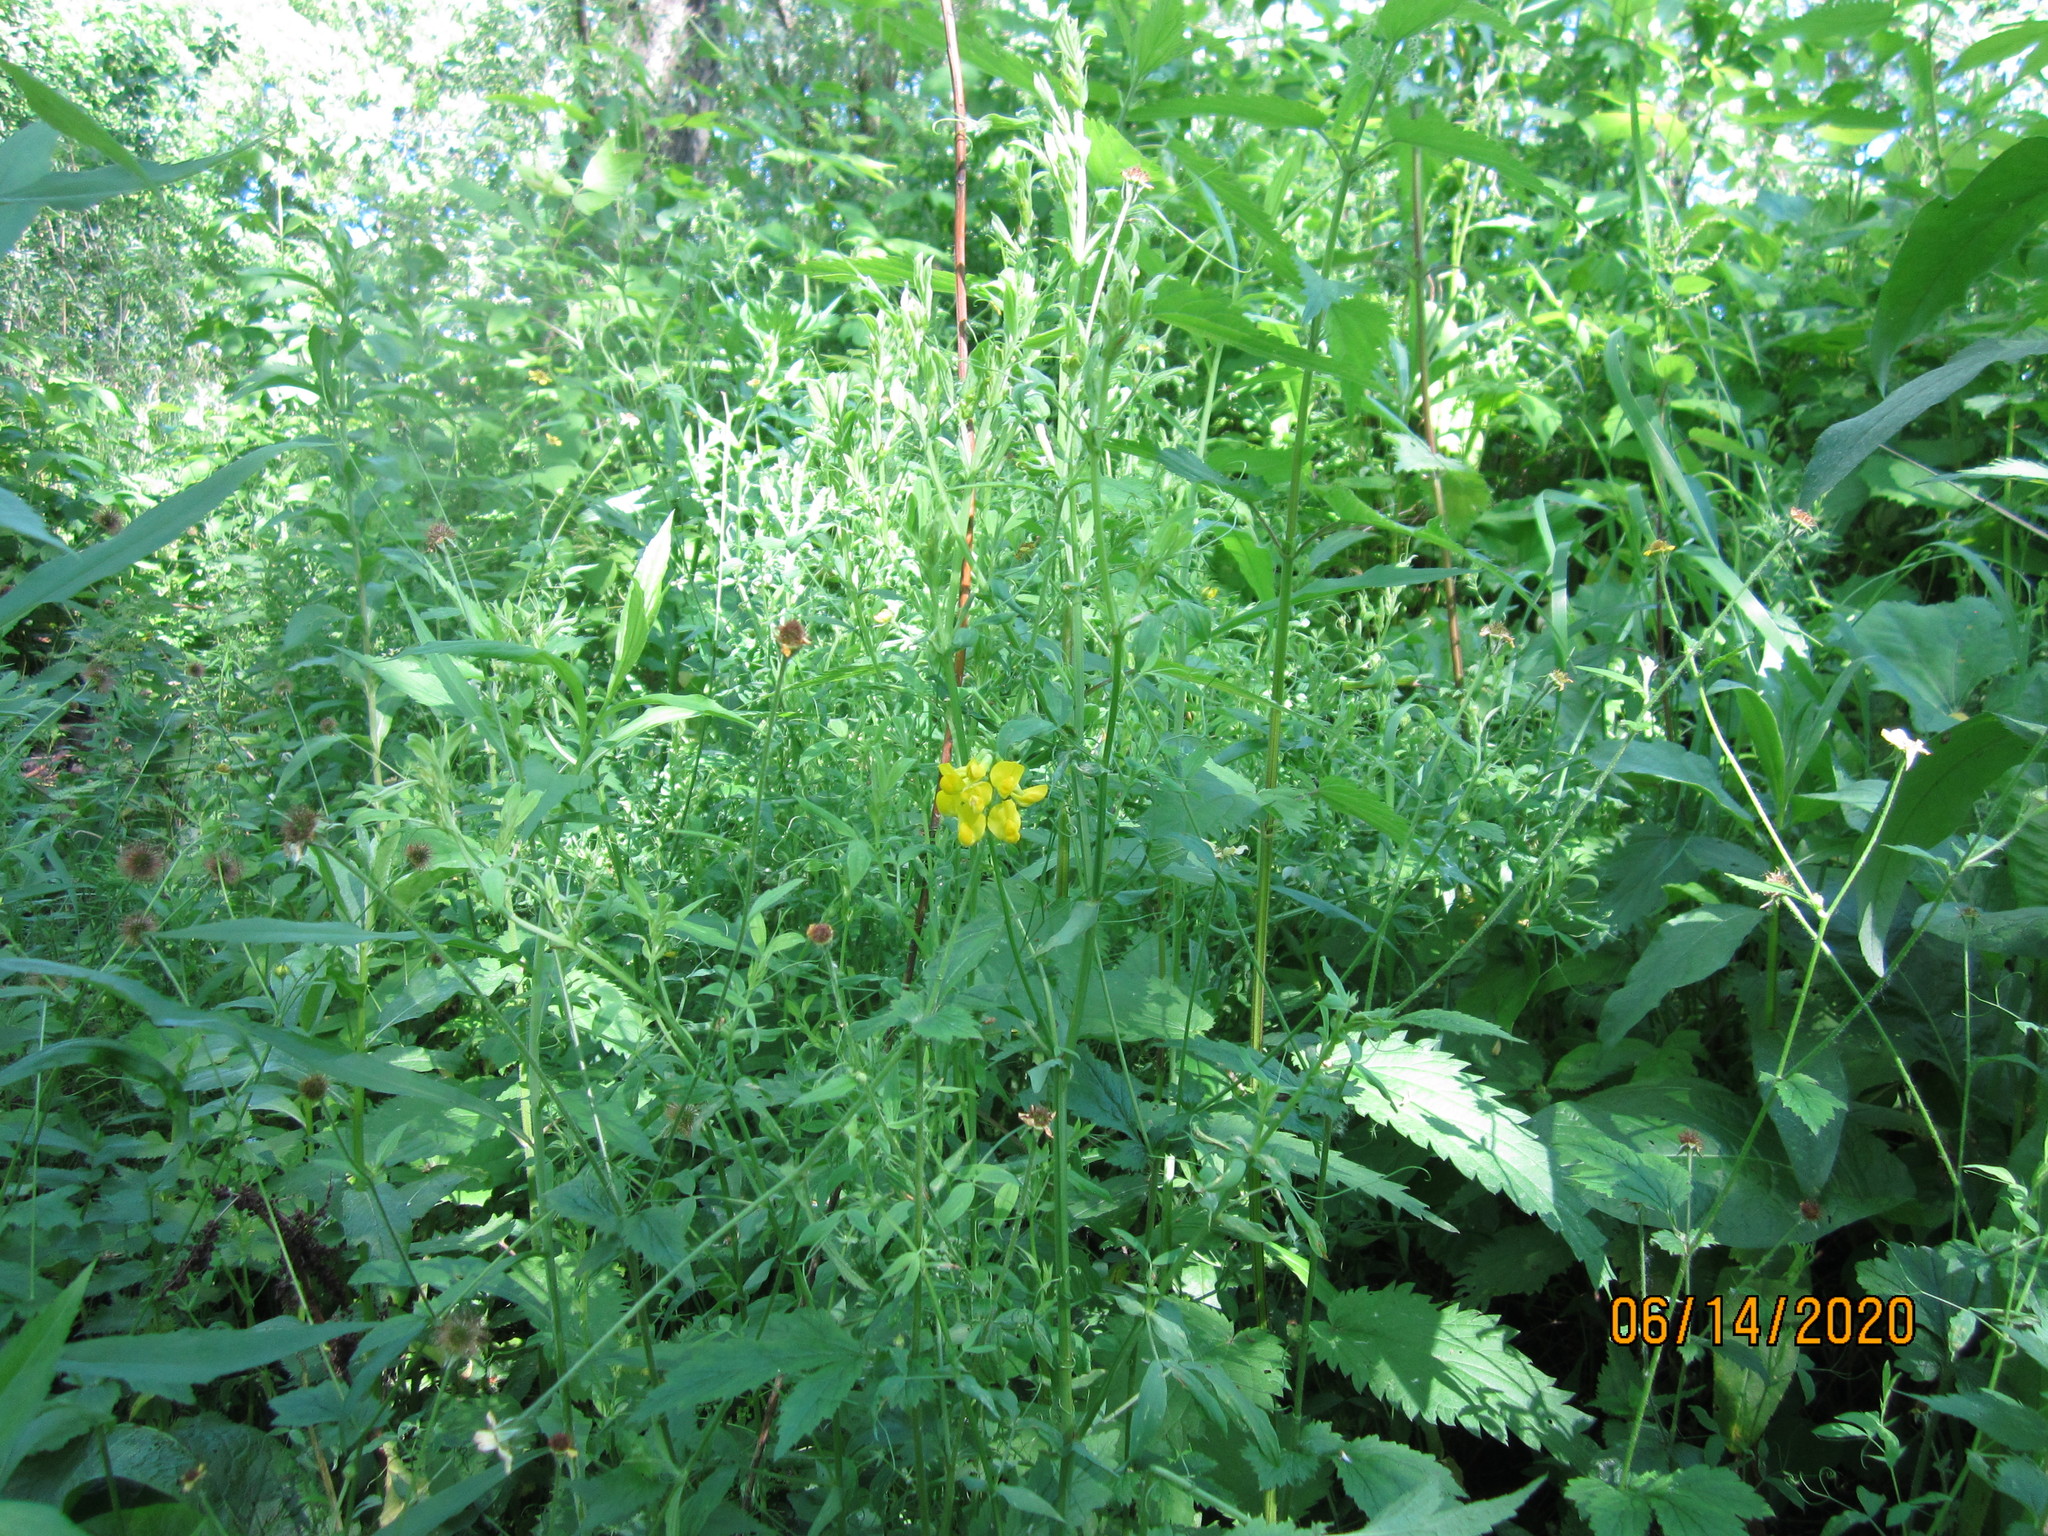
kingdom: Plantae
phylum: Tracheophyta
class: Magnoliopsida
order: Fabales
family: Fabaceae
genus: Lathyrus
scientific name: Lathyrus pratensis
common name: Meadow vetchling
